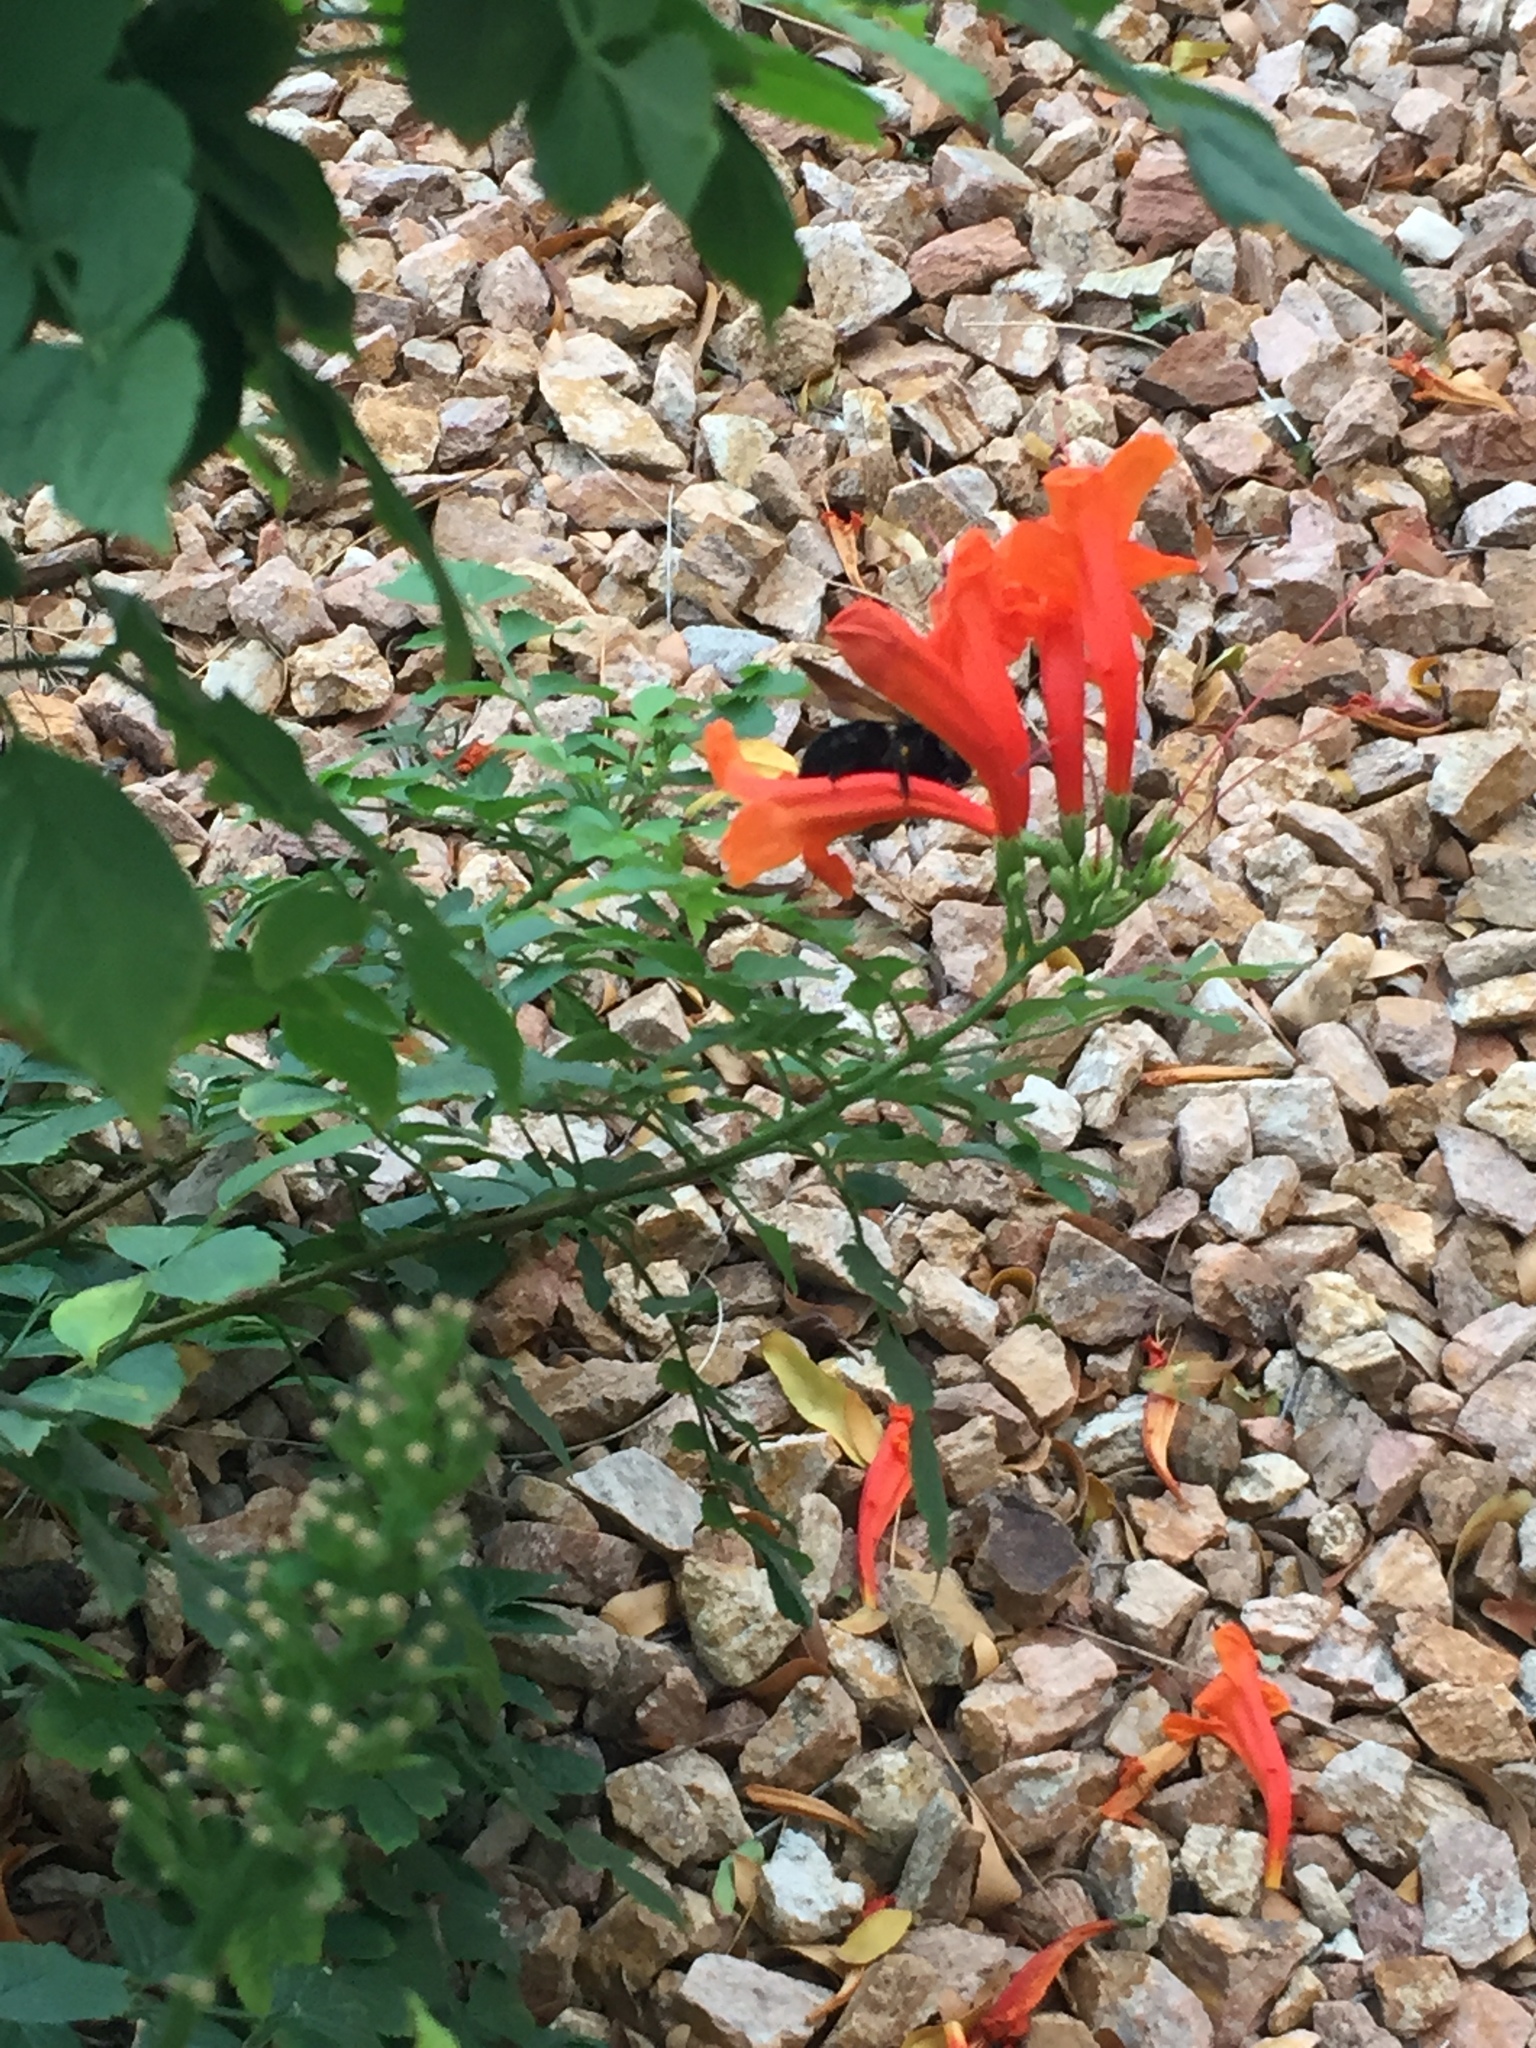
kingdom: Animalia
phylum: Arthropoda
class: Insecta
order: Hymenoptera
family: Apidae
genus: Xylocopa
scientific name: Xylocopa
